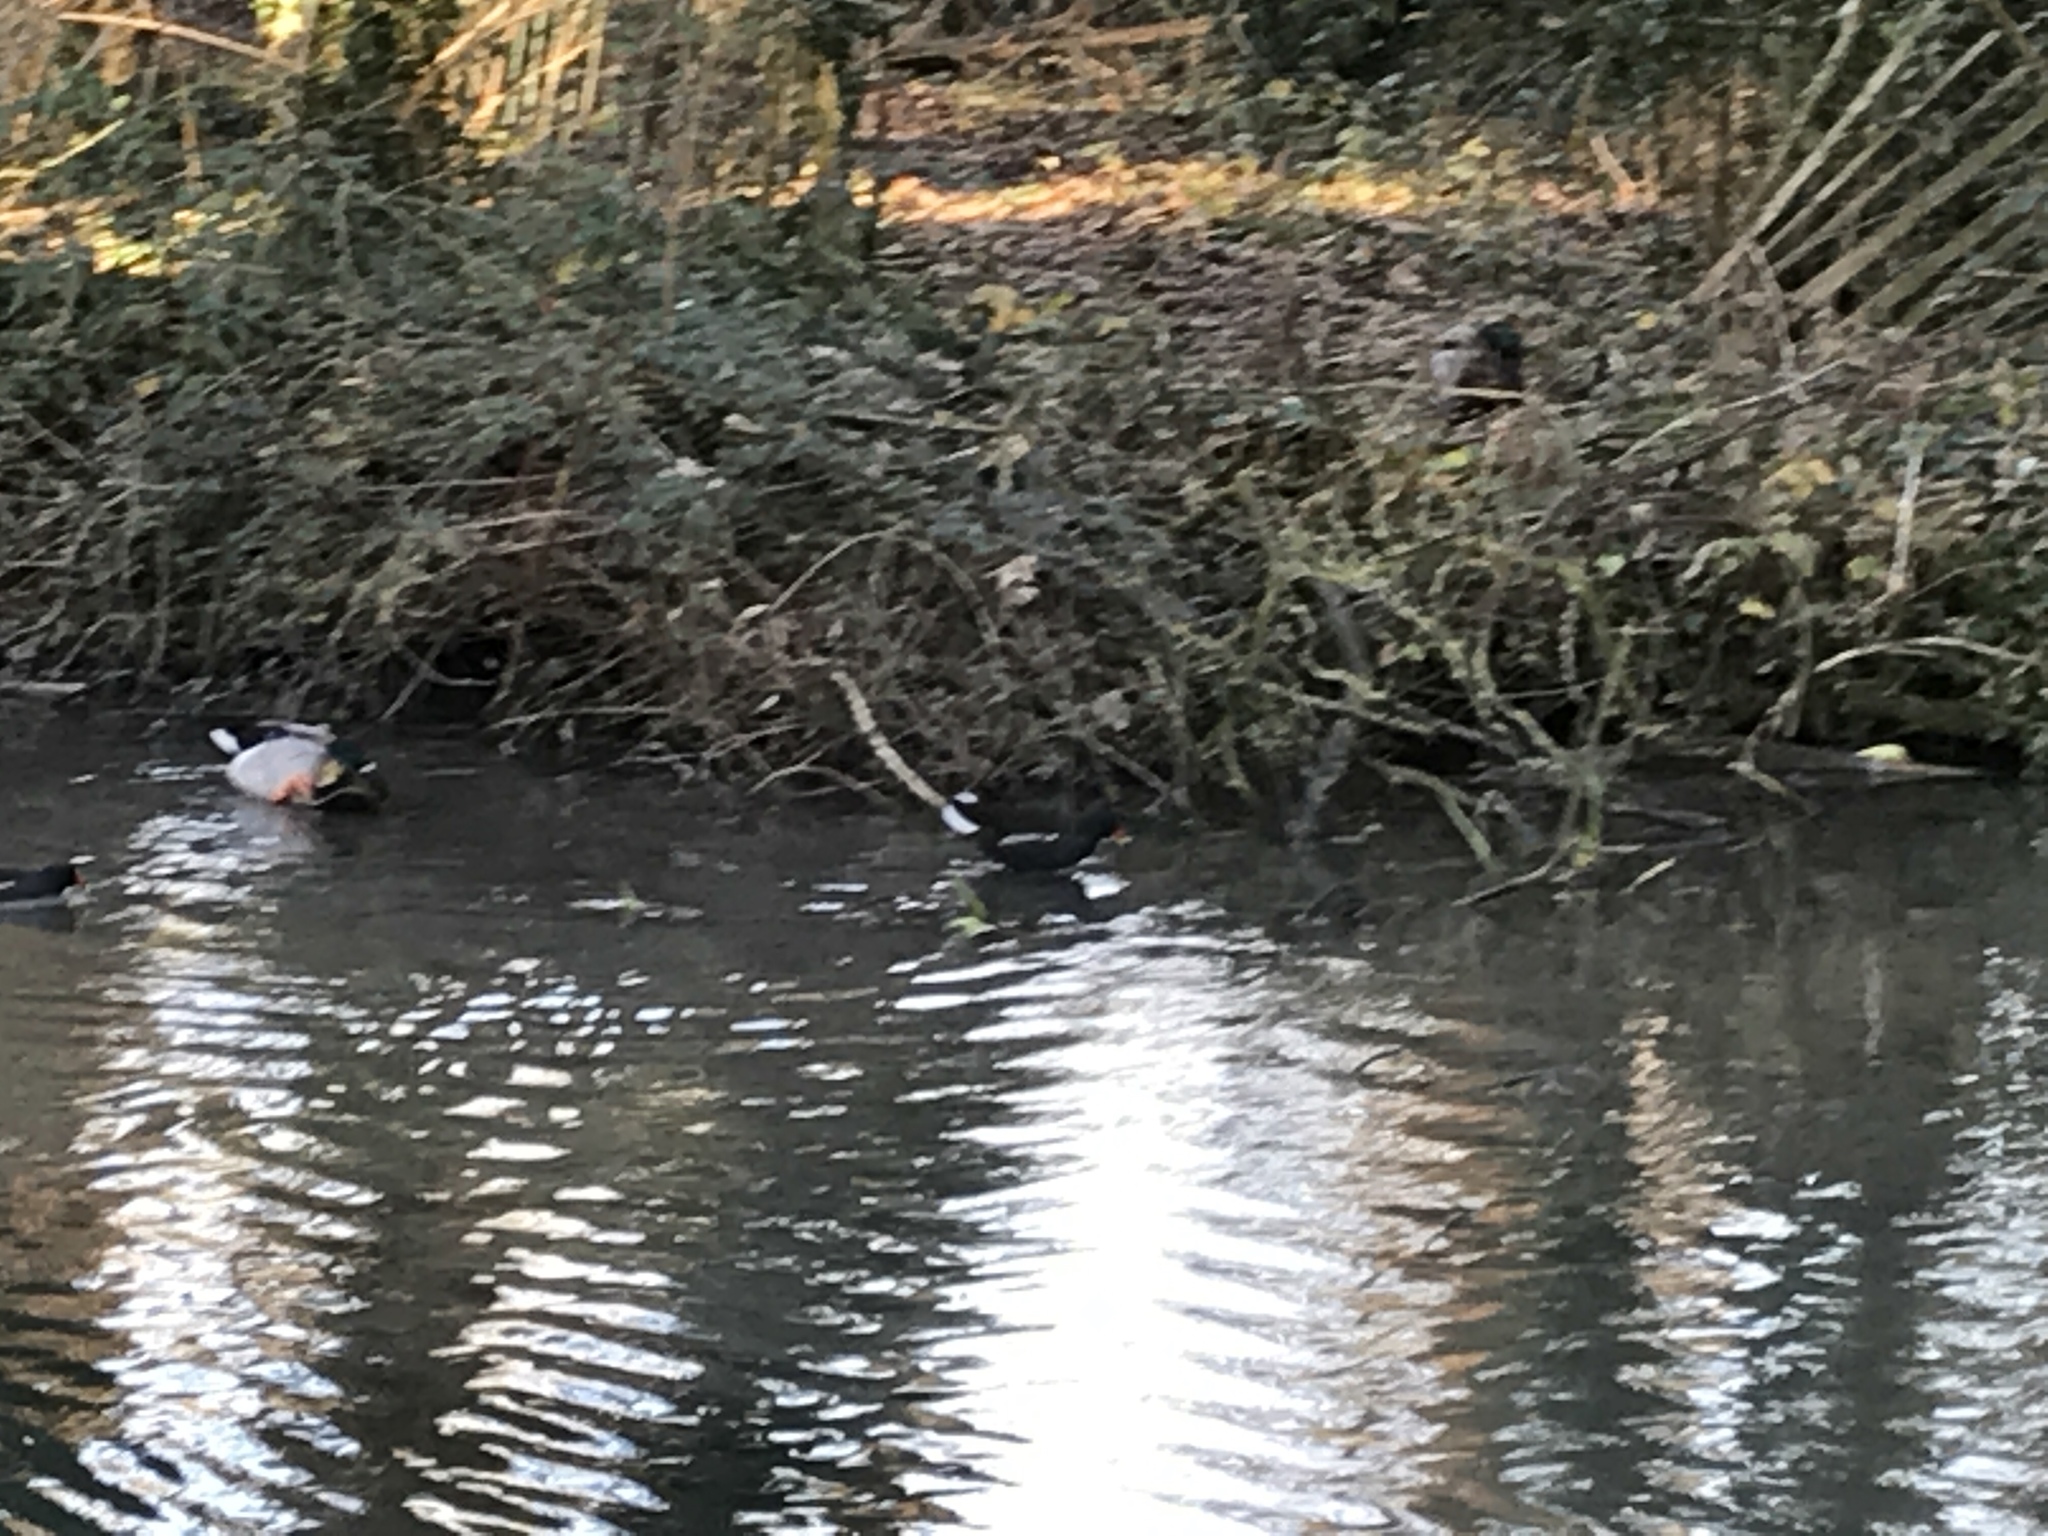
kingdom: Animalia
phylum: Chordata
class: Aves
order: Gruiformes
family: Rallidae
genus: Gallinula
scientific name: Gallinula chloropus
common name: Common moorhen
